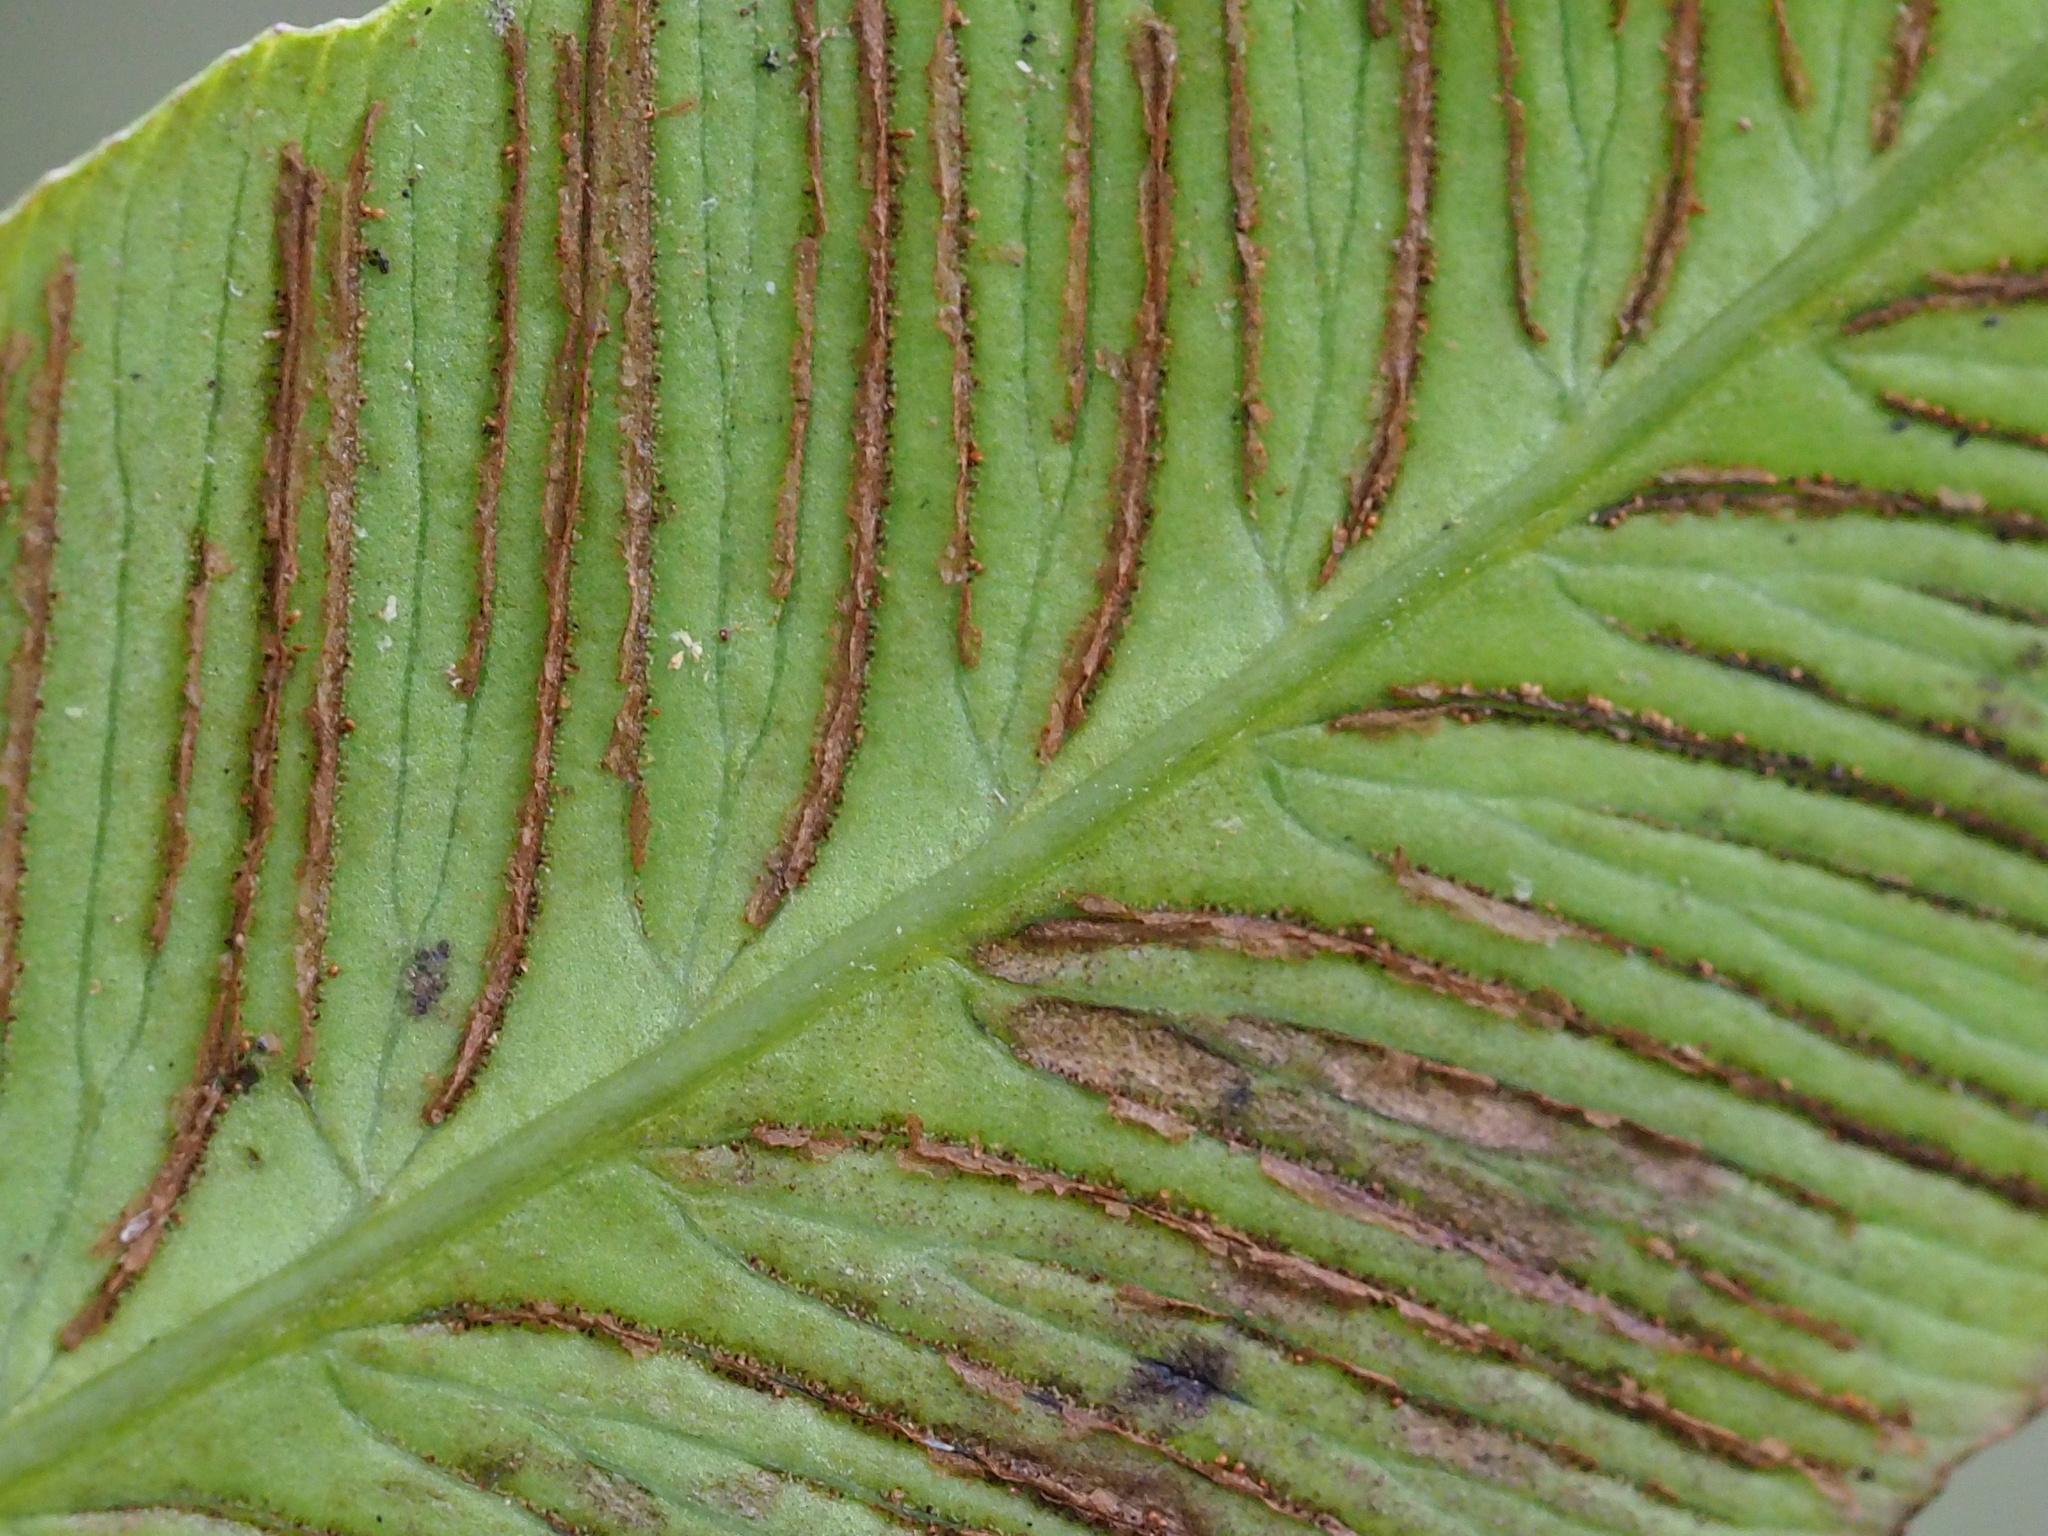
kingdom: Plantae
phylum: Tracheophyta
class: Polypodiopsida
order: Polypodiales
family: Athyriaceae
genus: Diplazium
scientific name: Diplazium lineolatum
